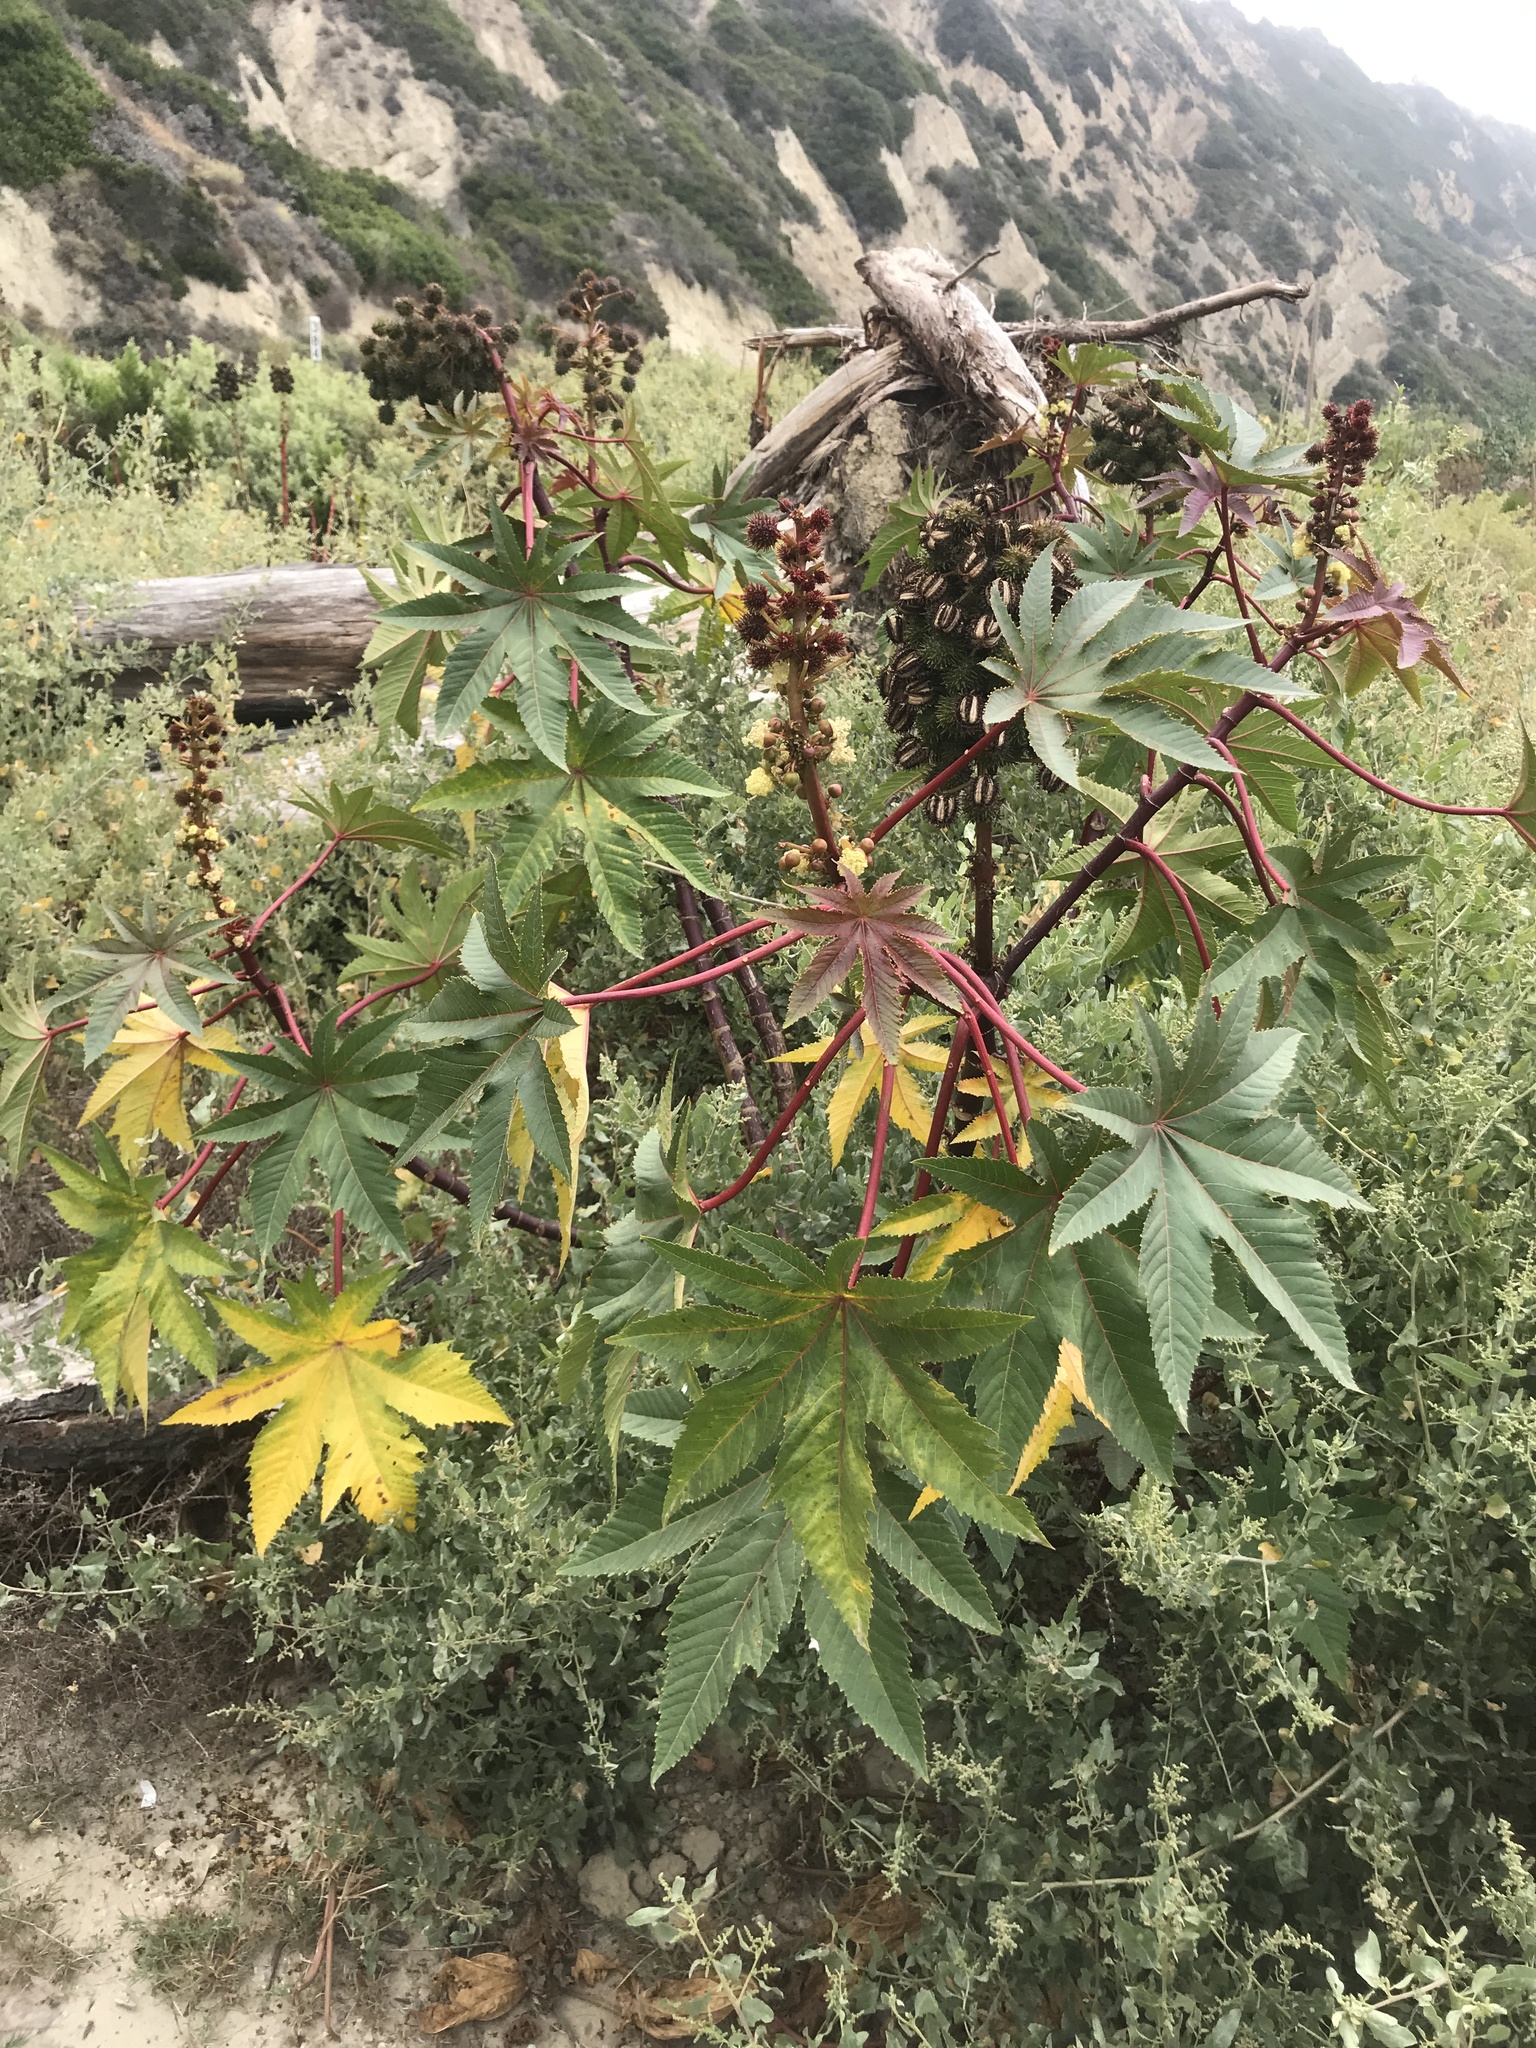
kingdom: Plantae
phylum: Tracheophyta
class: Magnoliopsida
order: Malpighiales
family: Euphorbiaceae
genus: Ricinus
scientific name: Ricinus communis
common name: Castor-oil-plant
